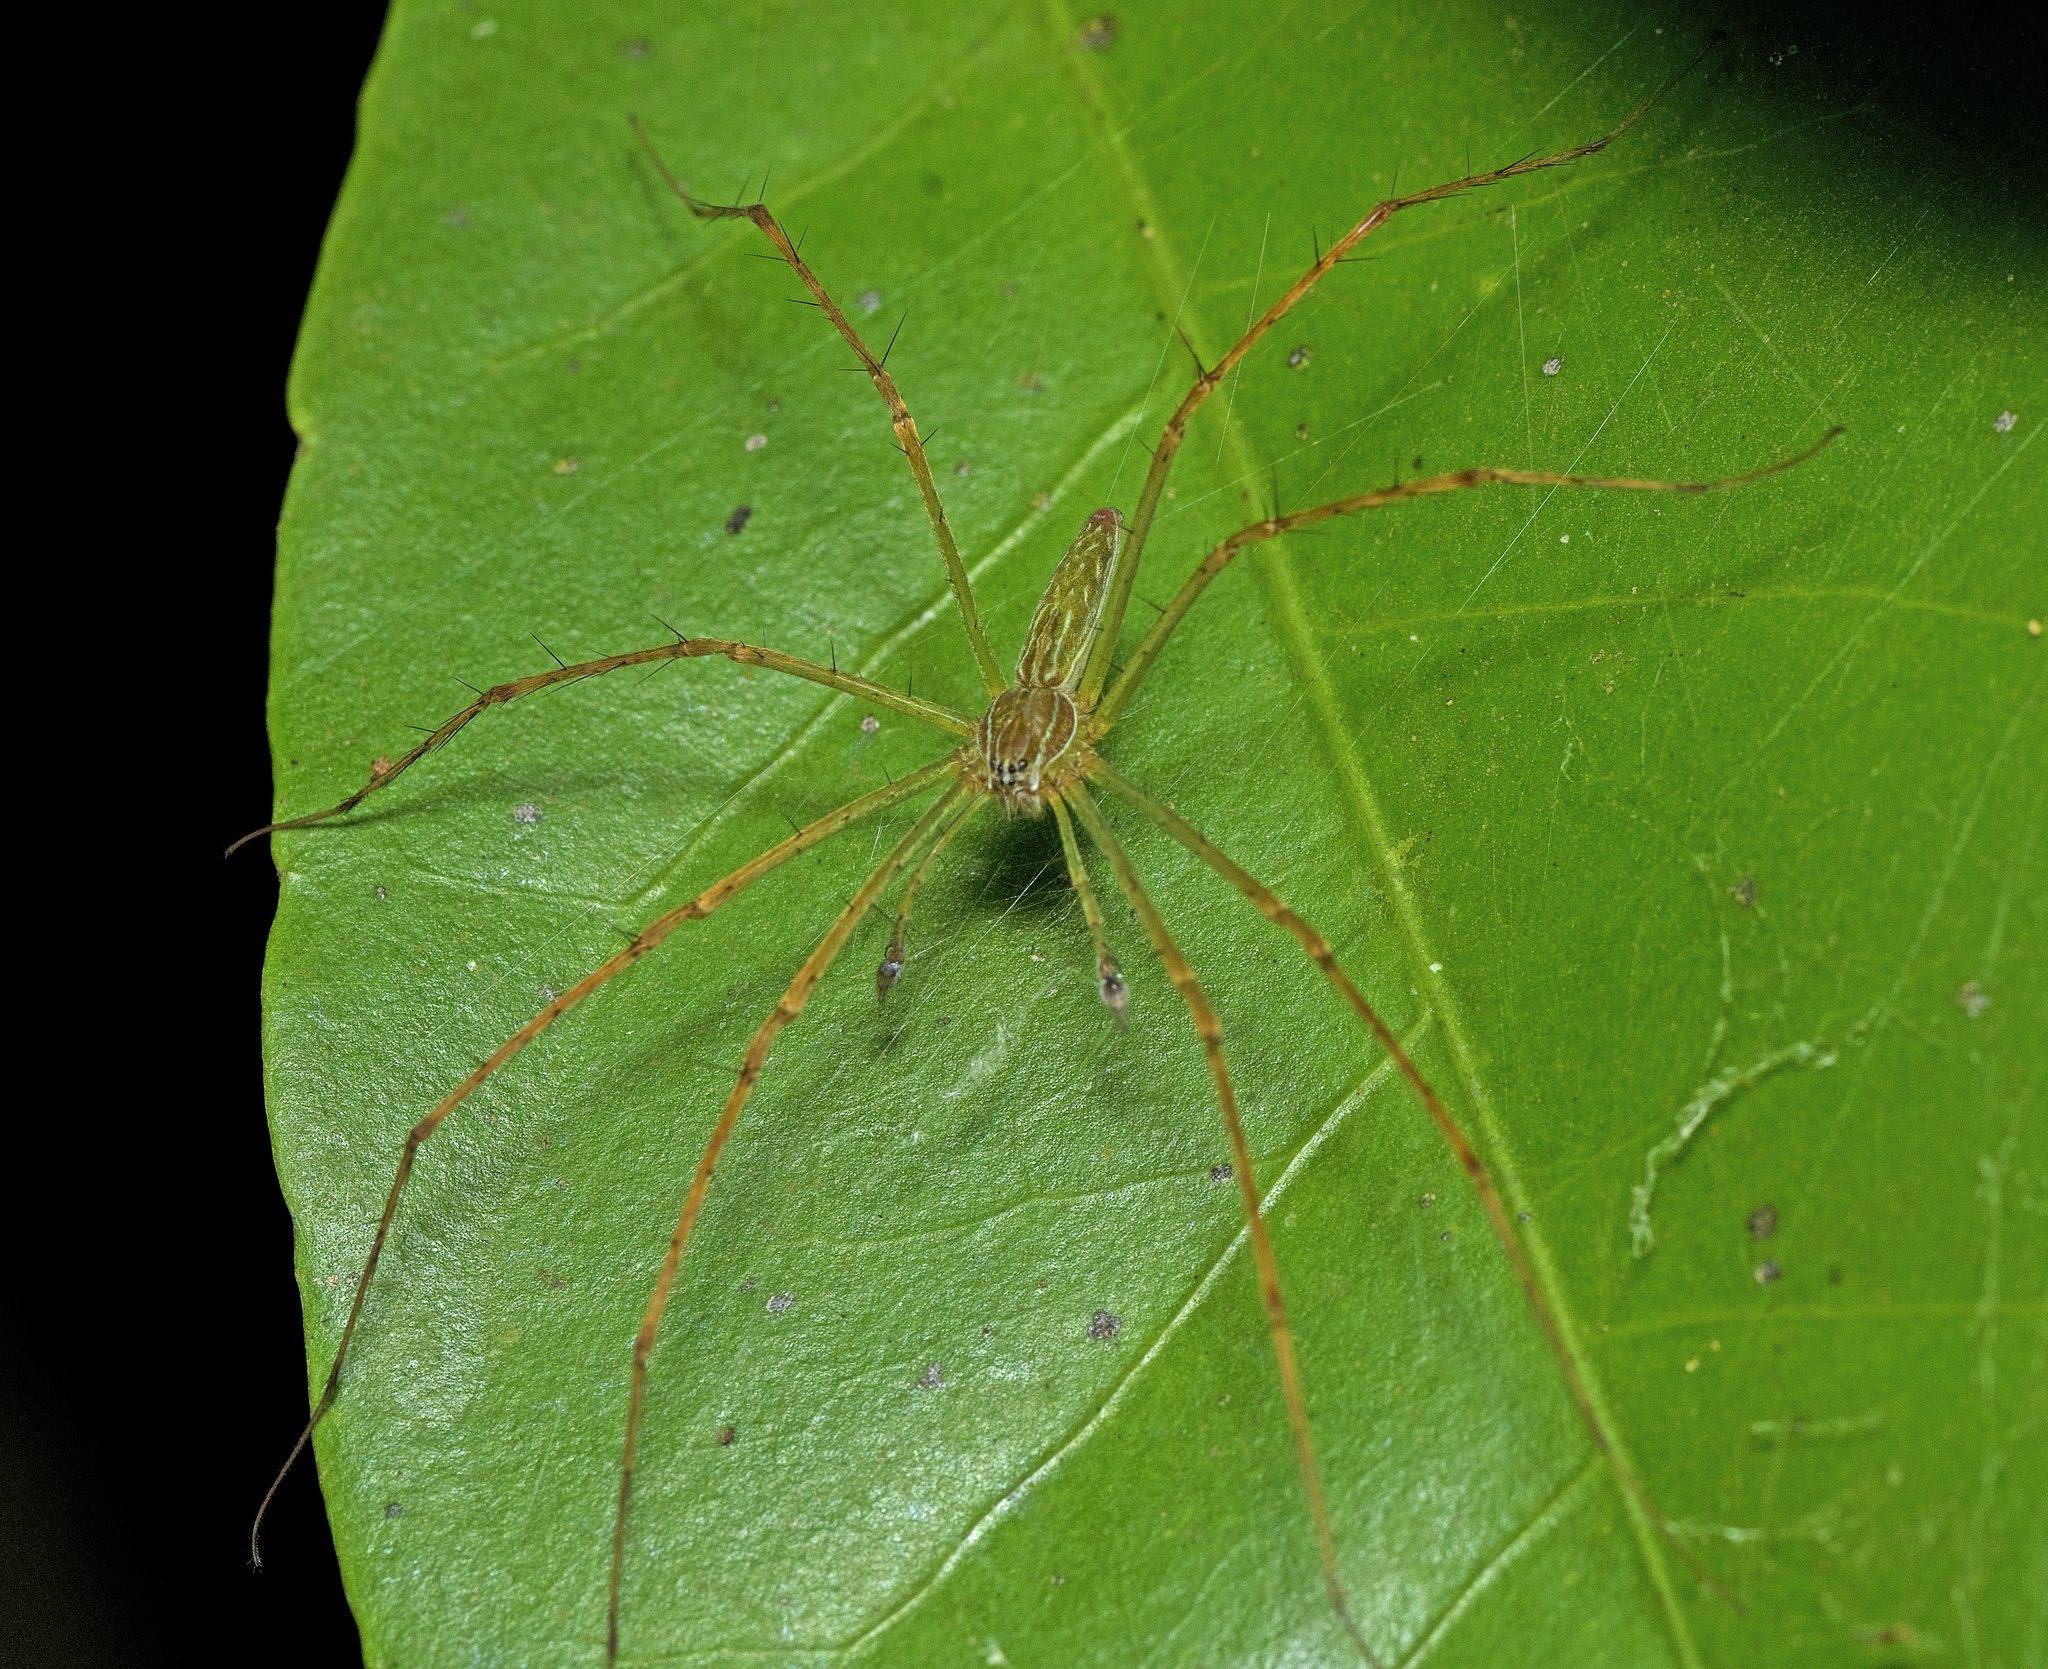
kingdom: Animalia
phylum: Arthropoda
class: Arachnida
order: Araneae
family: Pisauridae
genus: Hygropoda
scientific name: Hygropoda lineata
